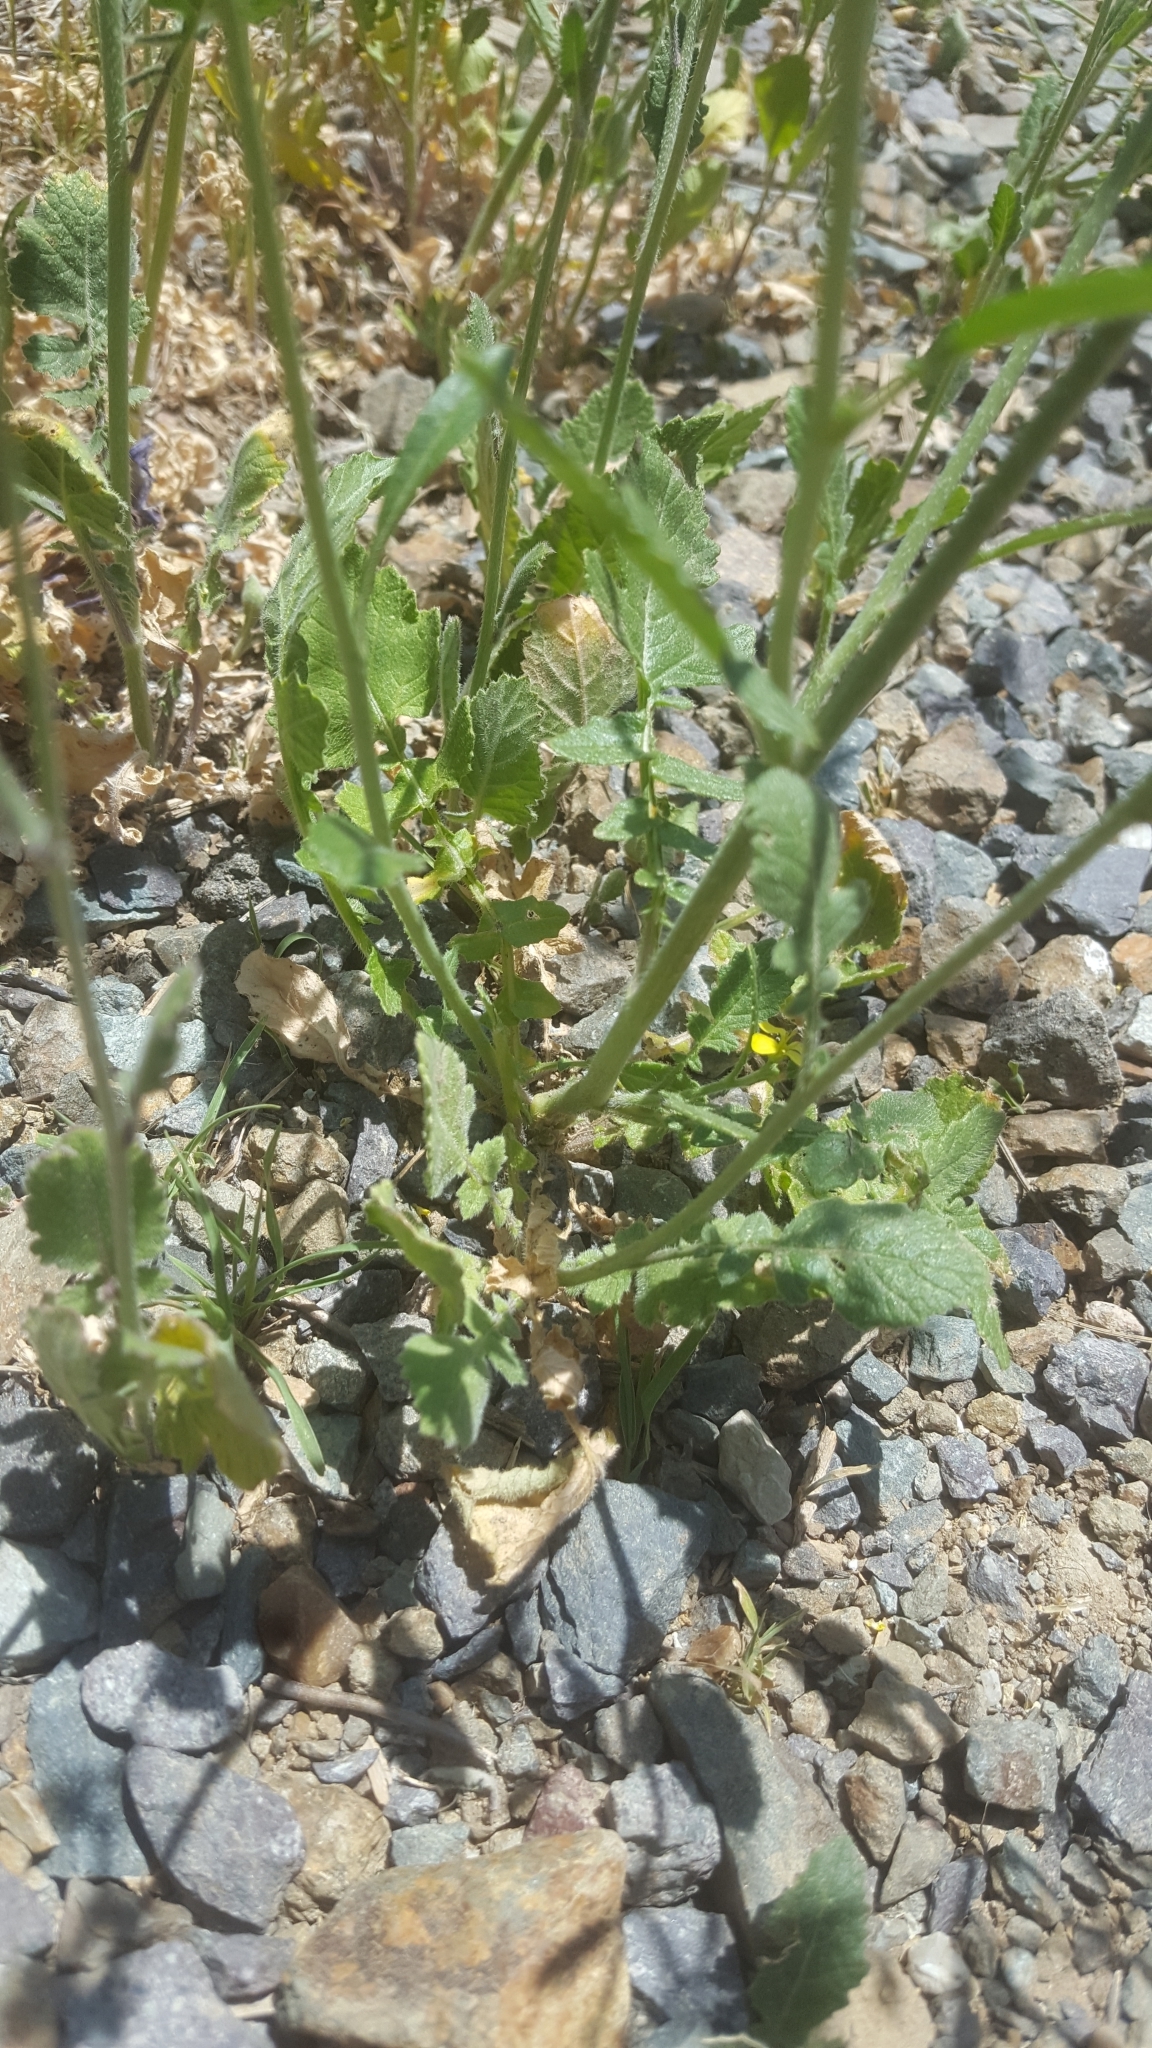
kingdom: Plantae
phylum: Tracheophyta
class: Magnoliopsida
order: Brassicales
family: Brassicaceae
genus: Brassica
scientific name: Brassica nigra
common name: Black mustard
